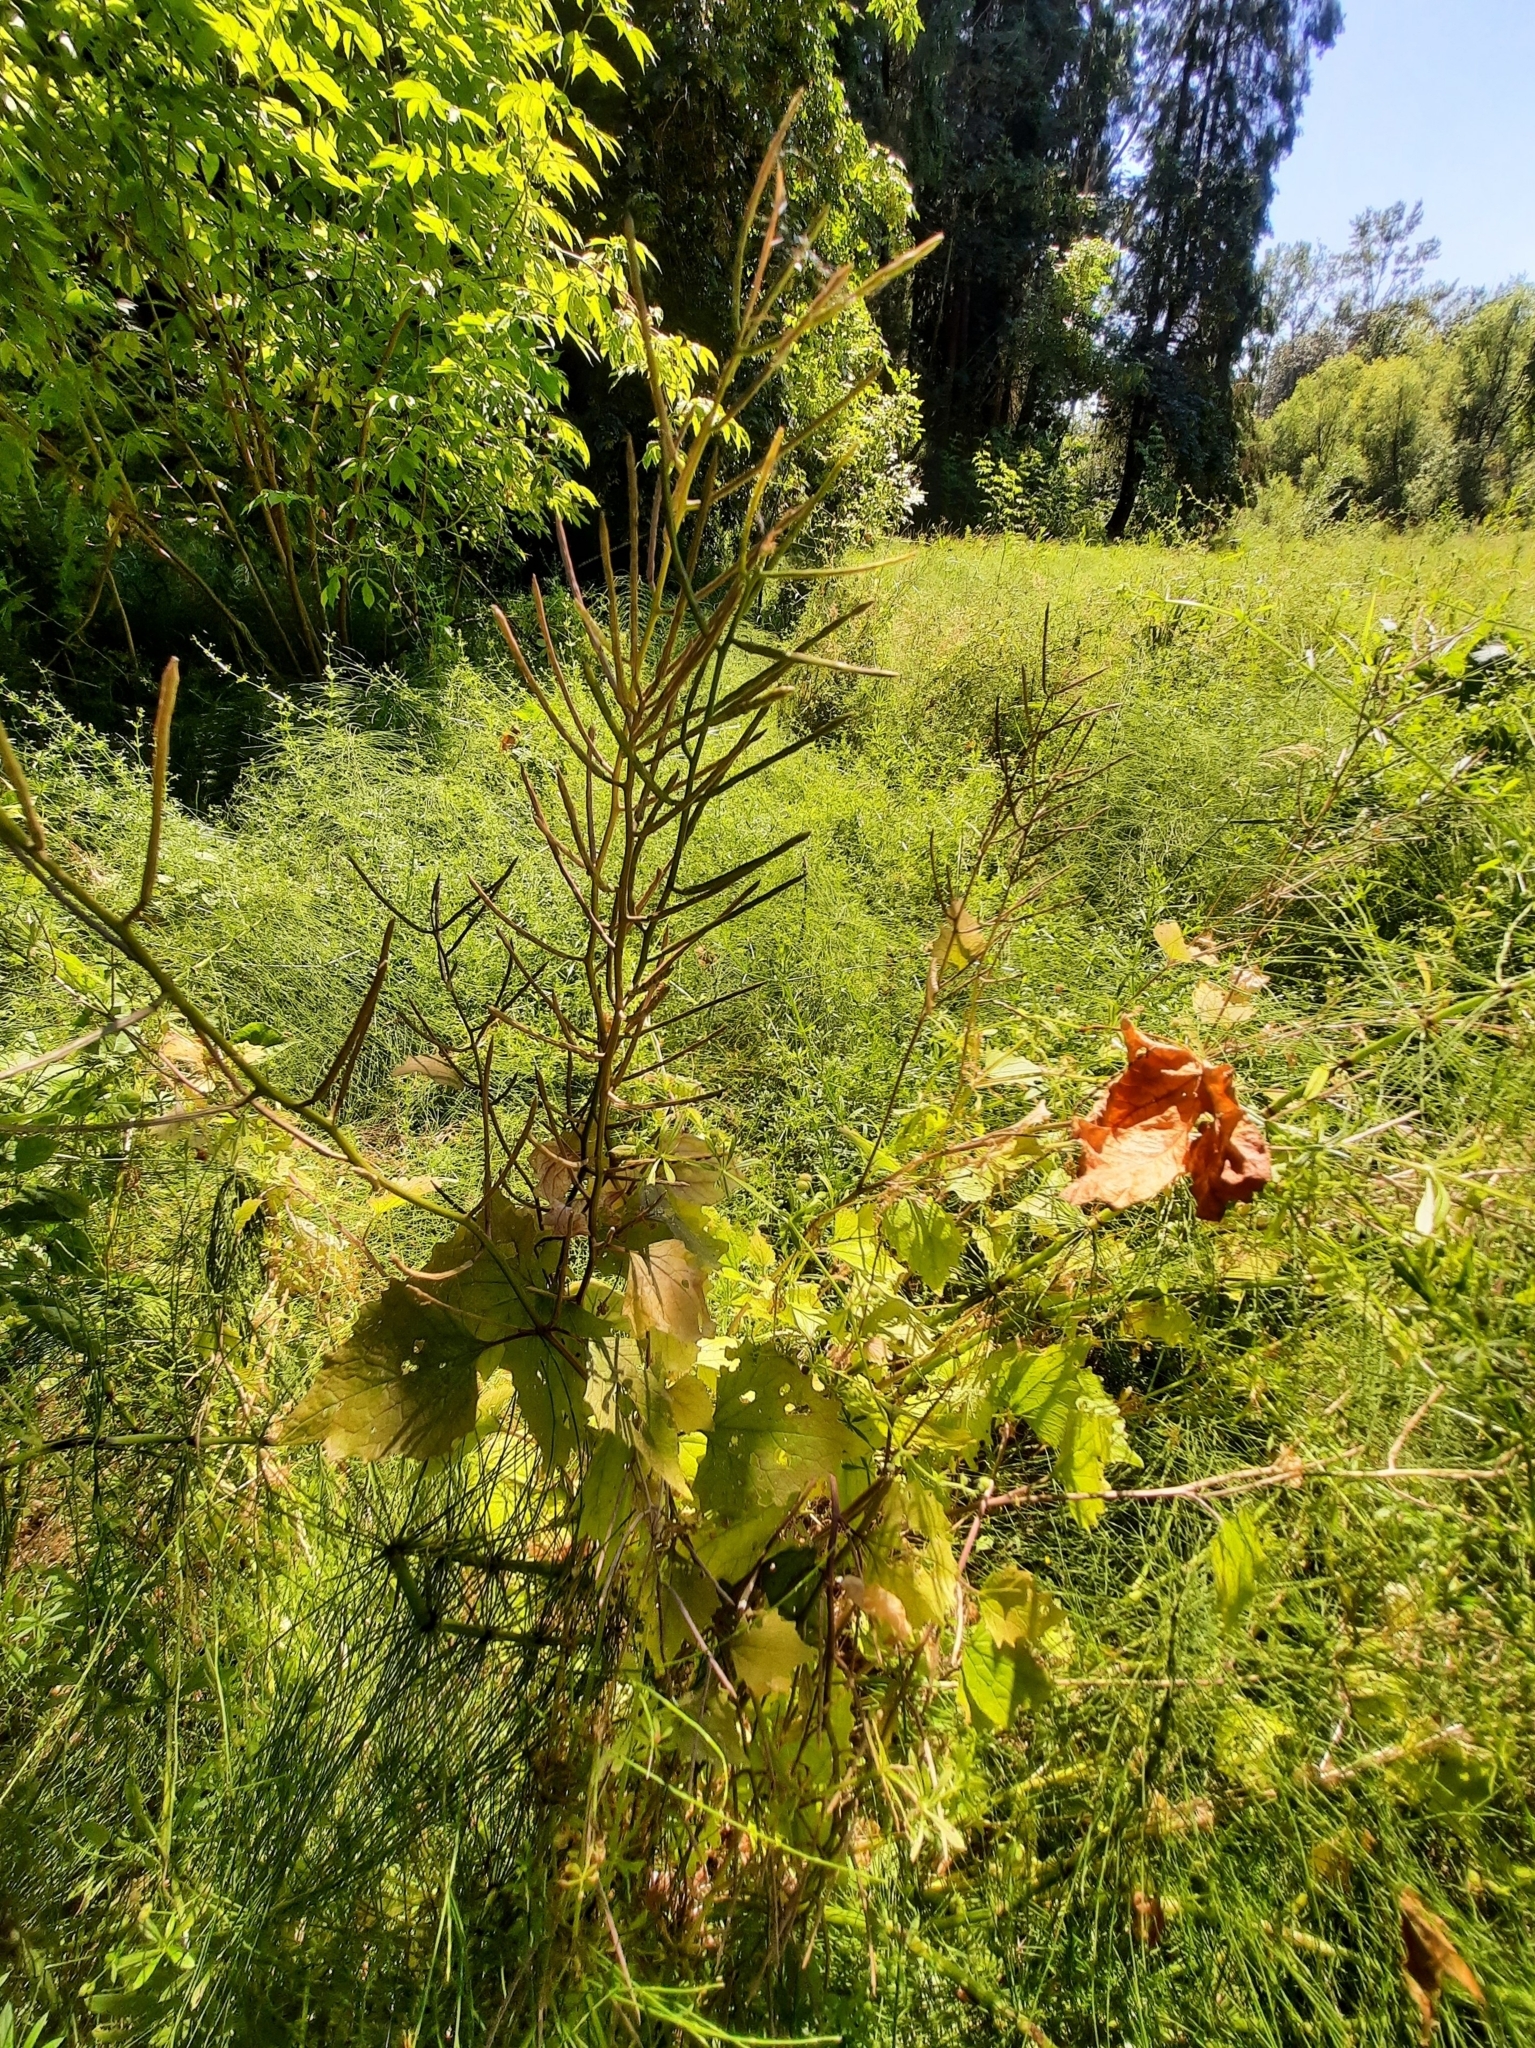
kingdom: Plantae
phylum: Tracheophyta
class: Magnoliopsida
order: Brassicales
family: Brassicaceae
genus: Alliaria
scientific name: Alliaria petiolata
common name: Garlic mustard
